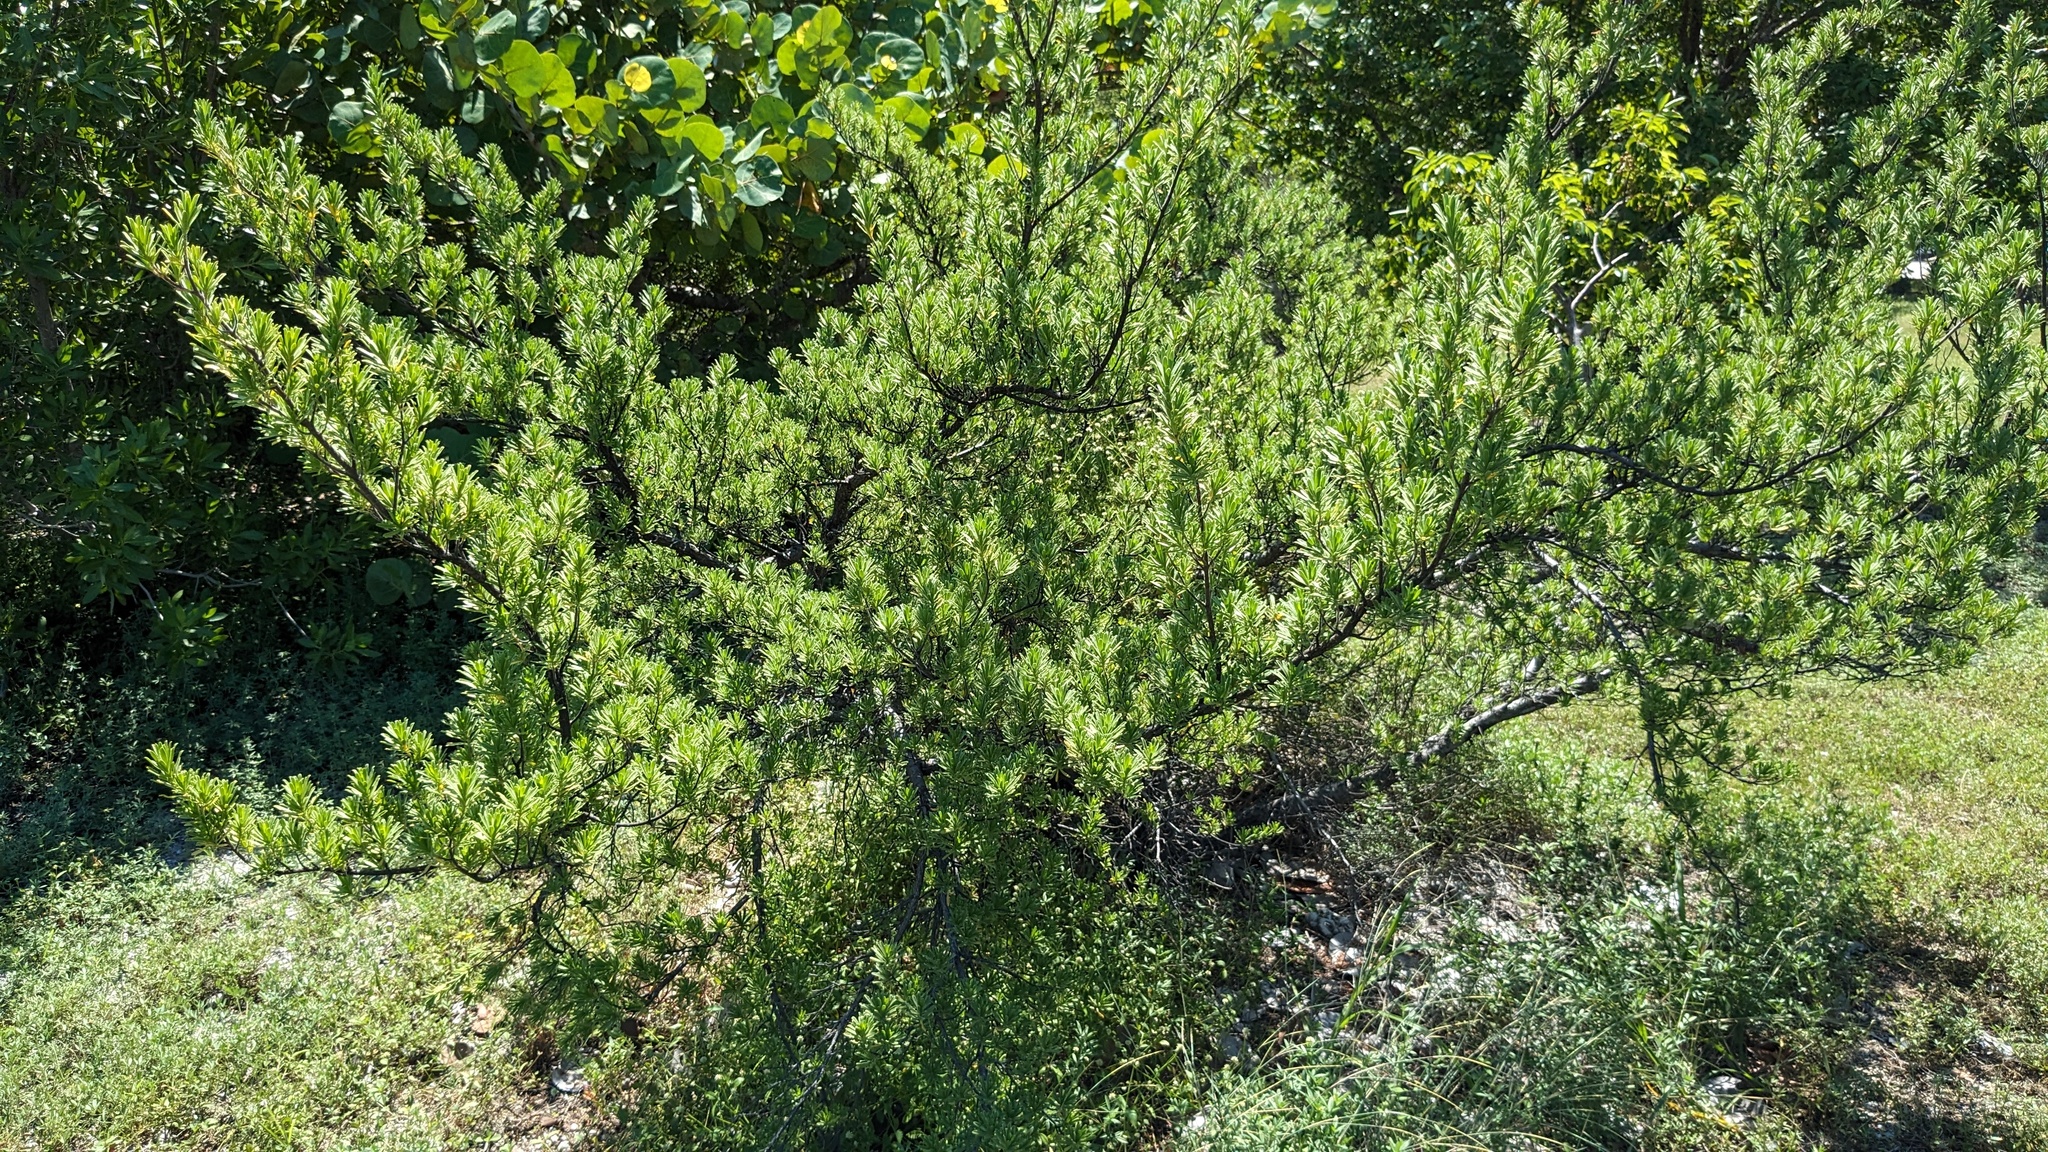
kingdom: Plantae
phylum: Tracheophyta
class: Magnoliopsida
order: Fabales
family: Surianaceae
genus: Suriana
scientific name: Suriana maritima
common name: Bay-cedar
